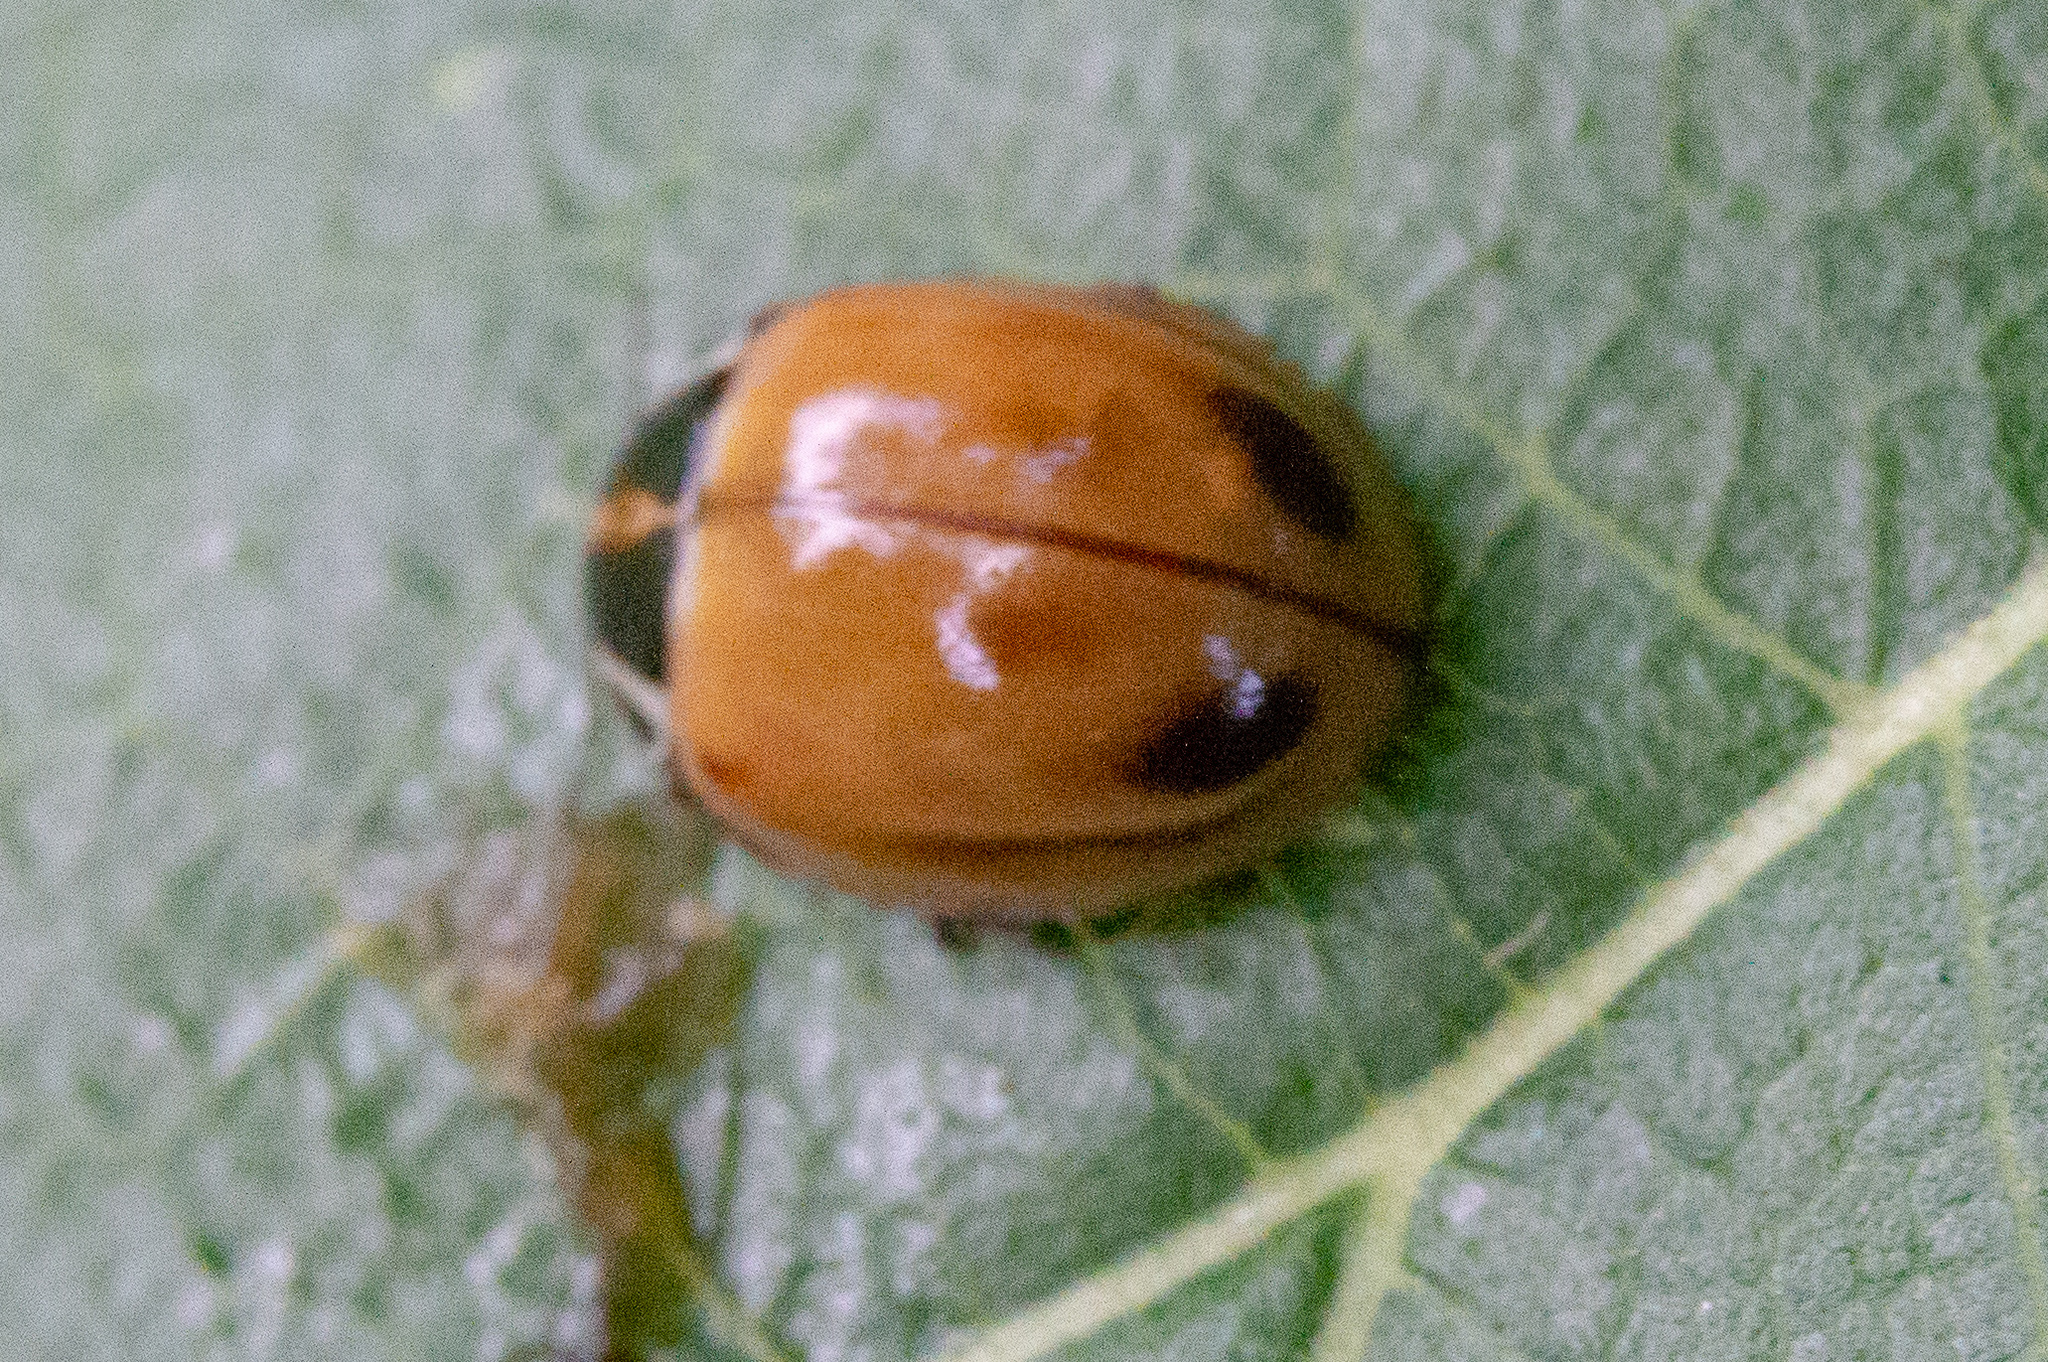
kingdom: Animalia
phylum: Arthropoda
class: Insecta
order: Coleoptera
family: Coccinellidae
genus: Myzia
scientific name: Myzia pullata
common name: Streaked lady beetle
